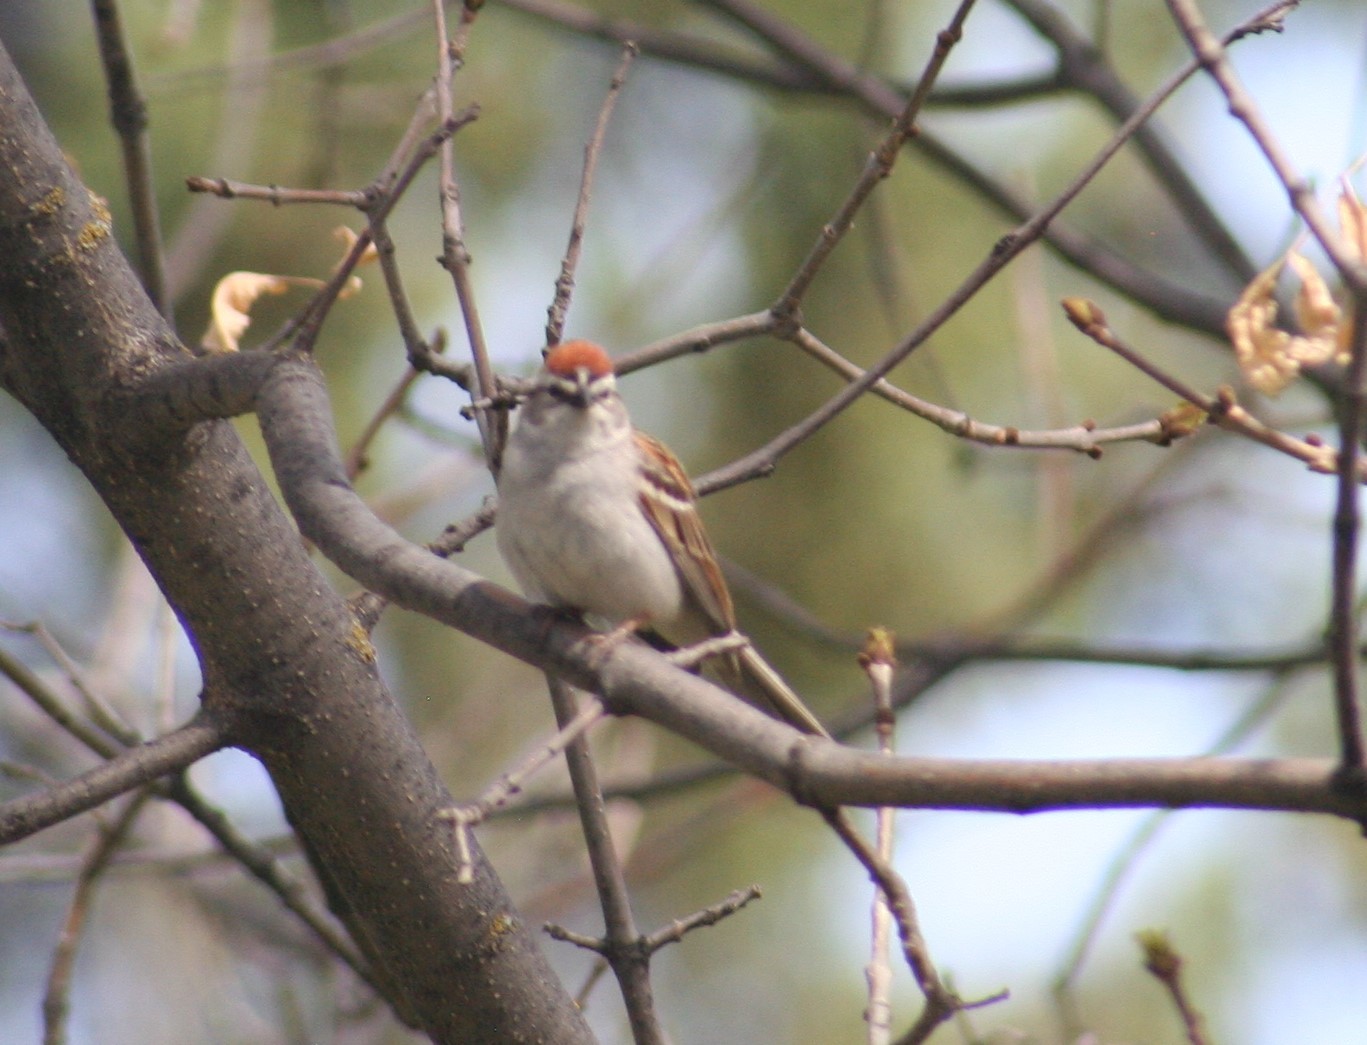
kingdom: Animalia
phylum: Chordata
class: Aves
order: Passeriformes
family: Passerellidae
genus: Spizella
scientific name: Spizella passerina
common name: Chipping sparrow
